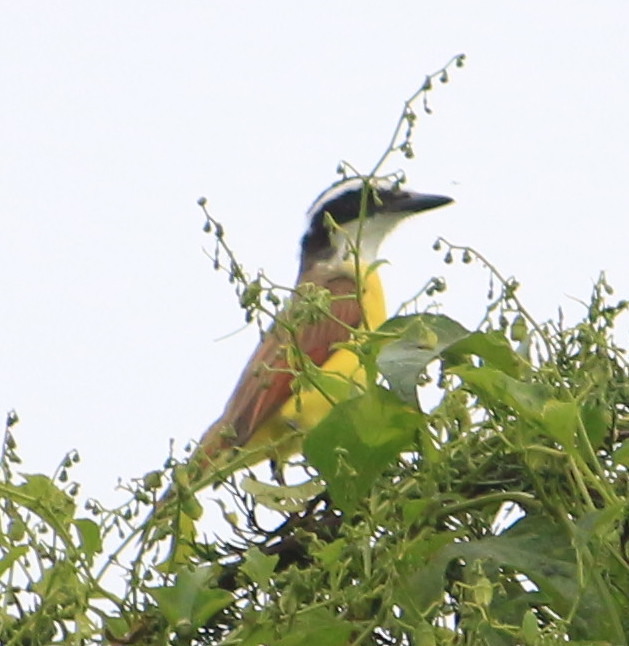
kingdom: Animalia
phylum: Chordata
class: Aves
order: Passeriformes
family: Tyrannidae
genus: Pitangus
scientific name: Pitangus sulphuratus
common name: Great kiskadee
